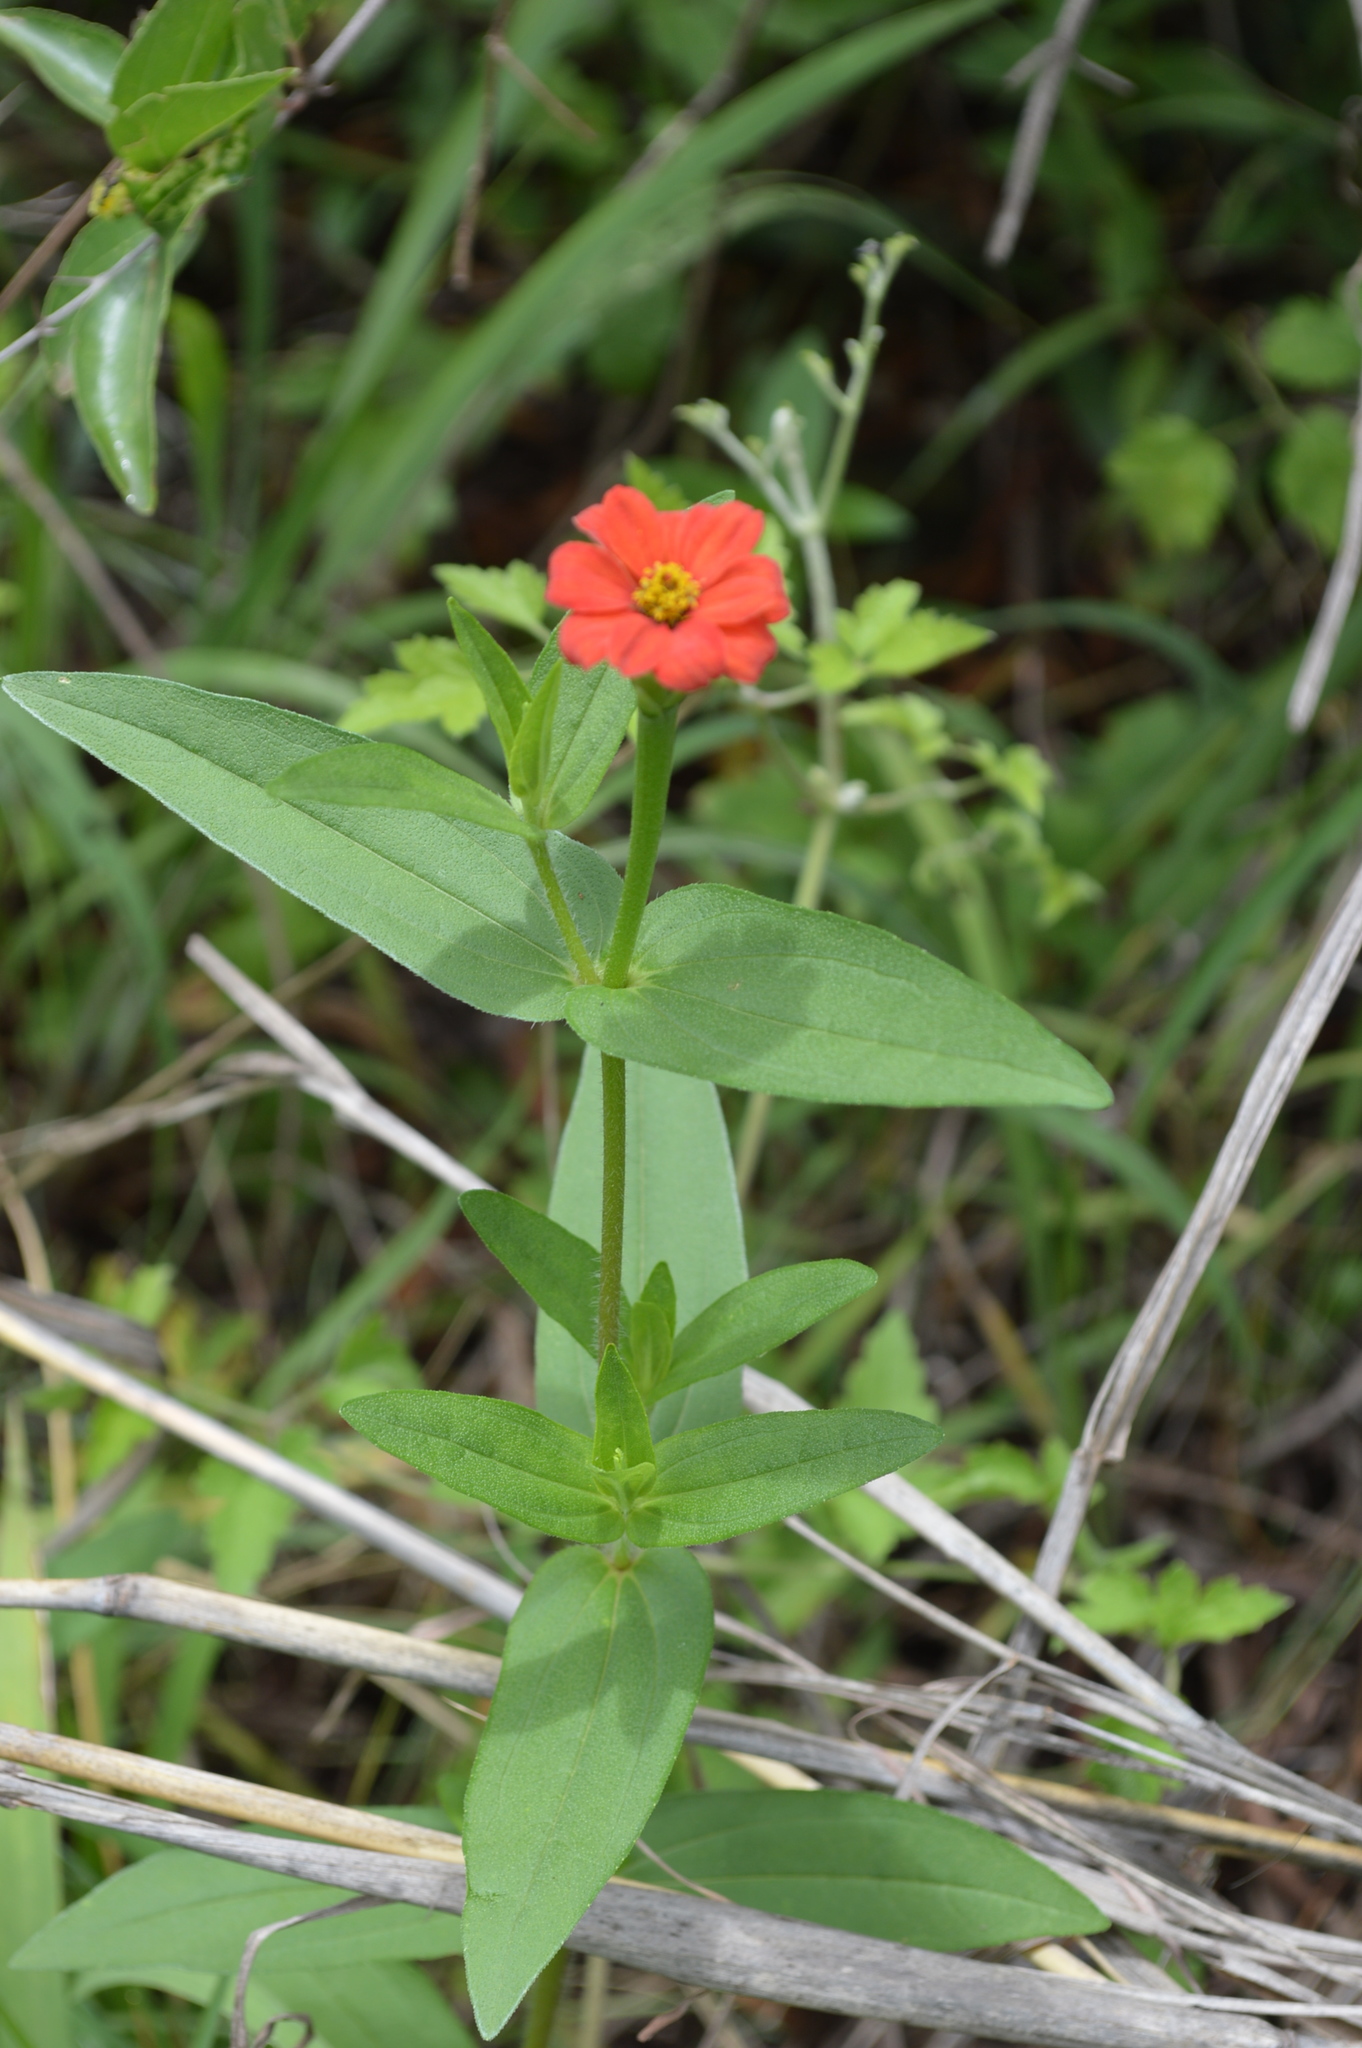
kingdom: Plantae
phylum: Tracheophyta
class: Magnoliopsida
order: Asterales
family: Asteraceae
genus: Zinnia
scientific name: Zinnia peruviana
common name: Peruvian zinnia
